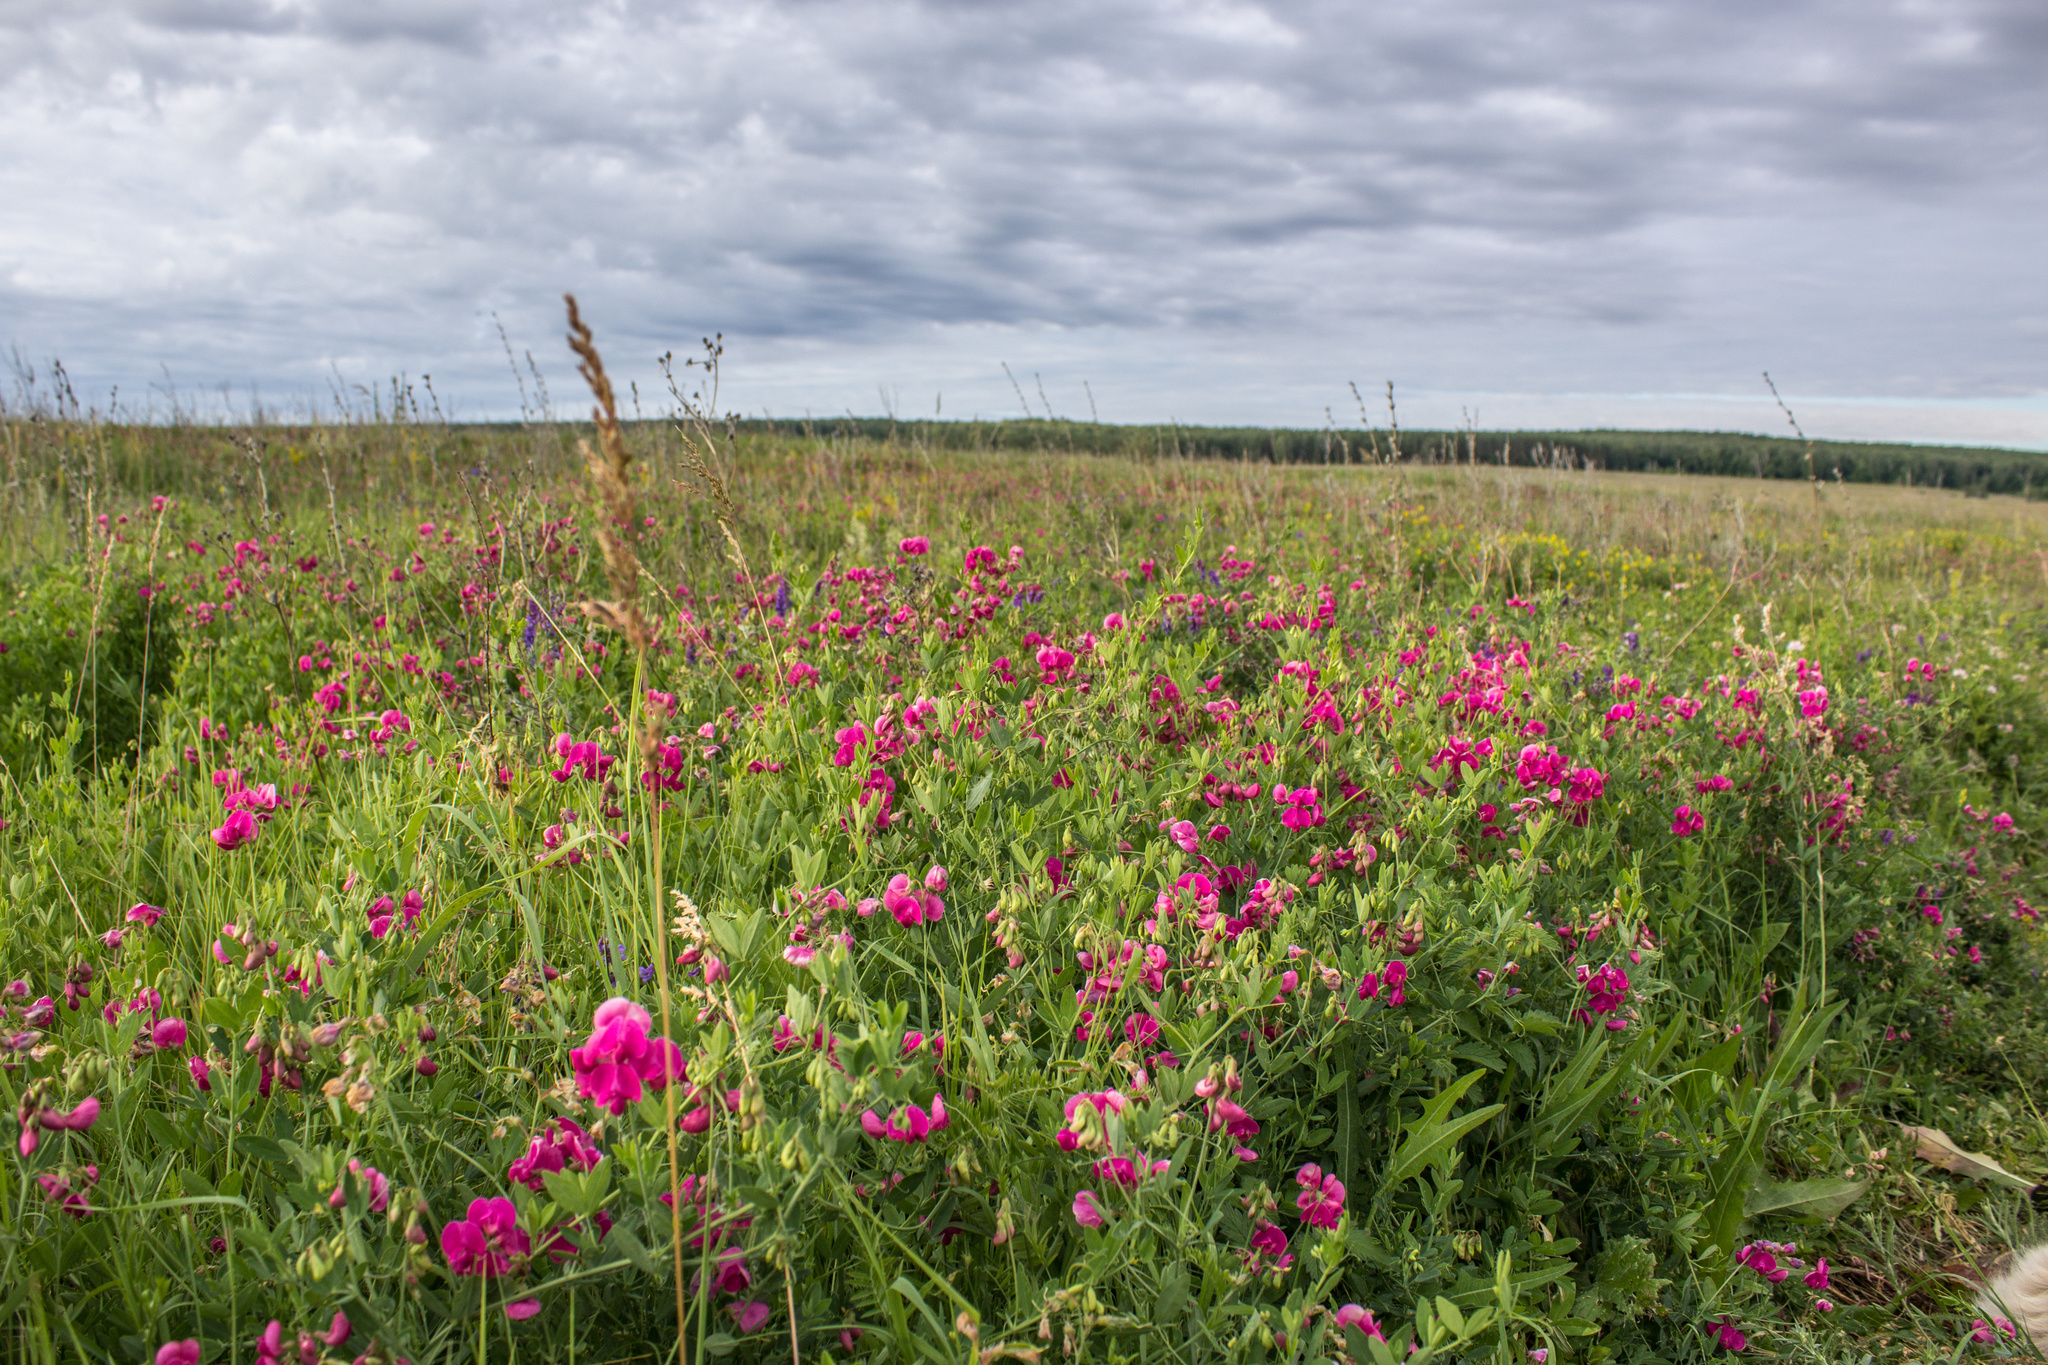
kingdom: Plantae
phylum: Tracheophyta
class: Magnoliopsida
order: Fabales
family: Fabaceae
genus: Lathyrus
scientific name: Lathyrus tuberosus
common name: Tuberous pea
